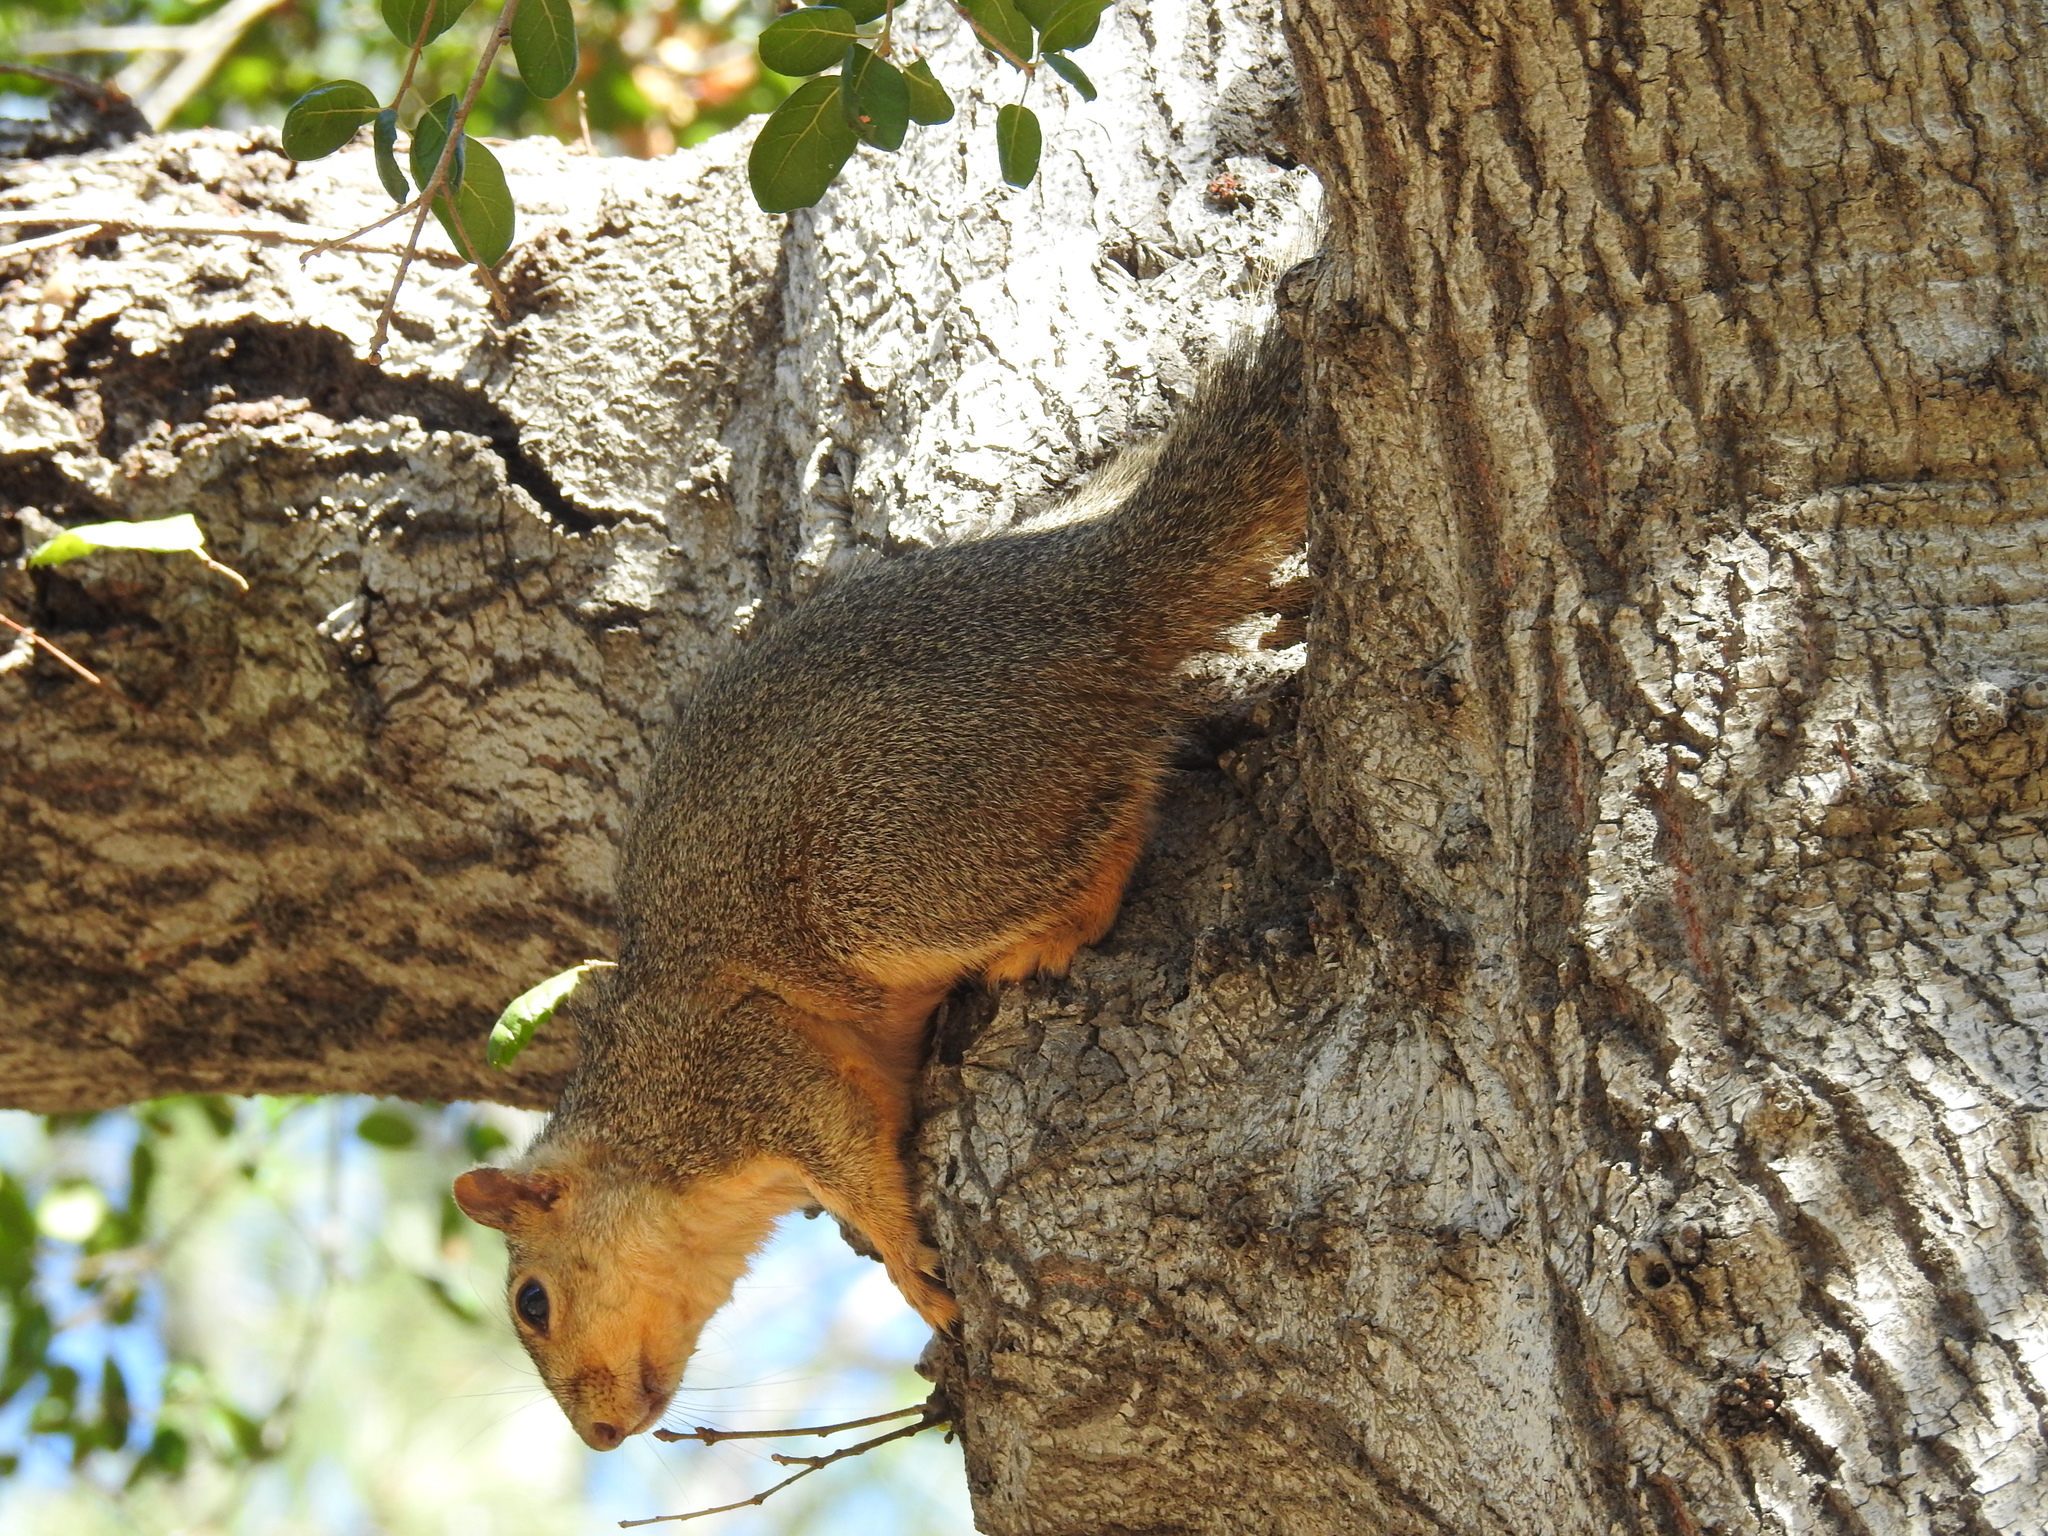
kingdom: Animalia
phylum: Chordata
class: Mammalia
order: Rodentia
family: Sciuridae
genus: Sciurus
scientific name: Sciurus niger
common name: Fox squirrel
